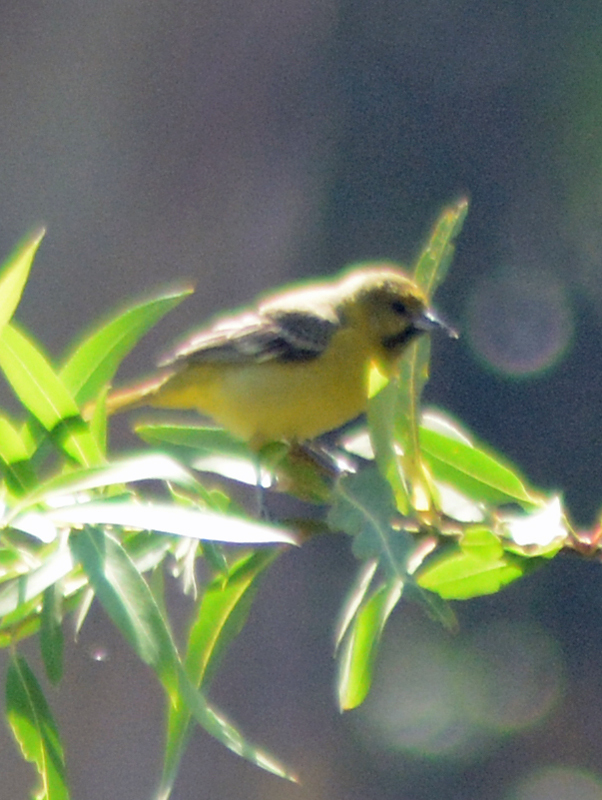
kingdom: Animalia
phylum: Chordata
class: Aves
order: Passeriformes
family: Icteridae
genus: Icterus
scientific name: Icterus spurius
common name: Orchard oriole
